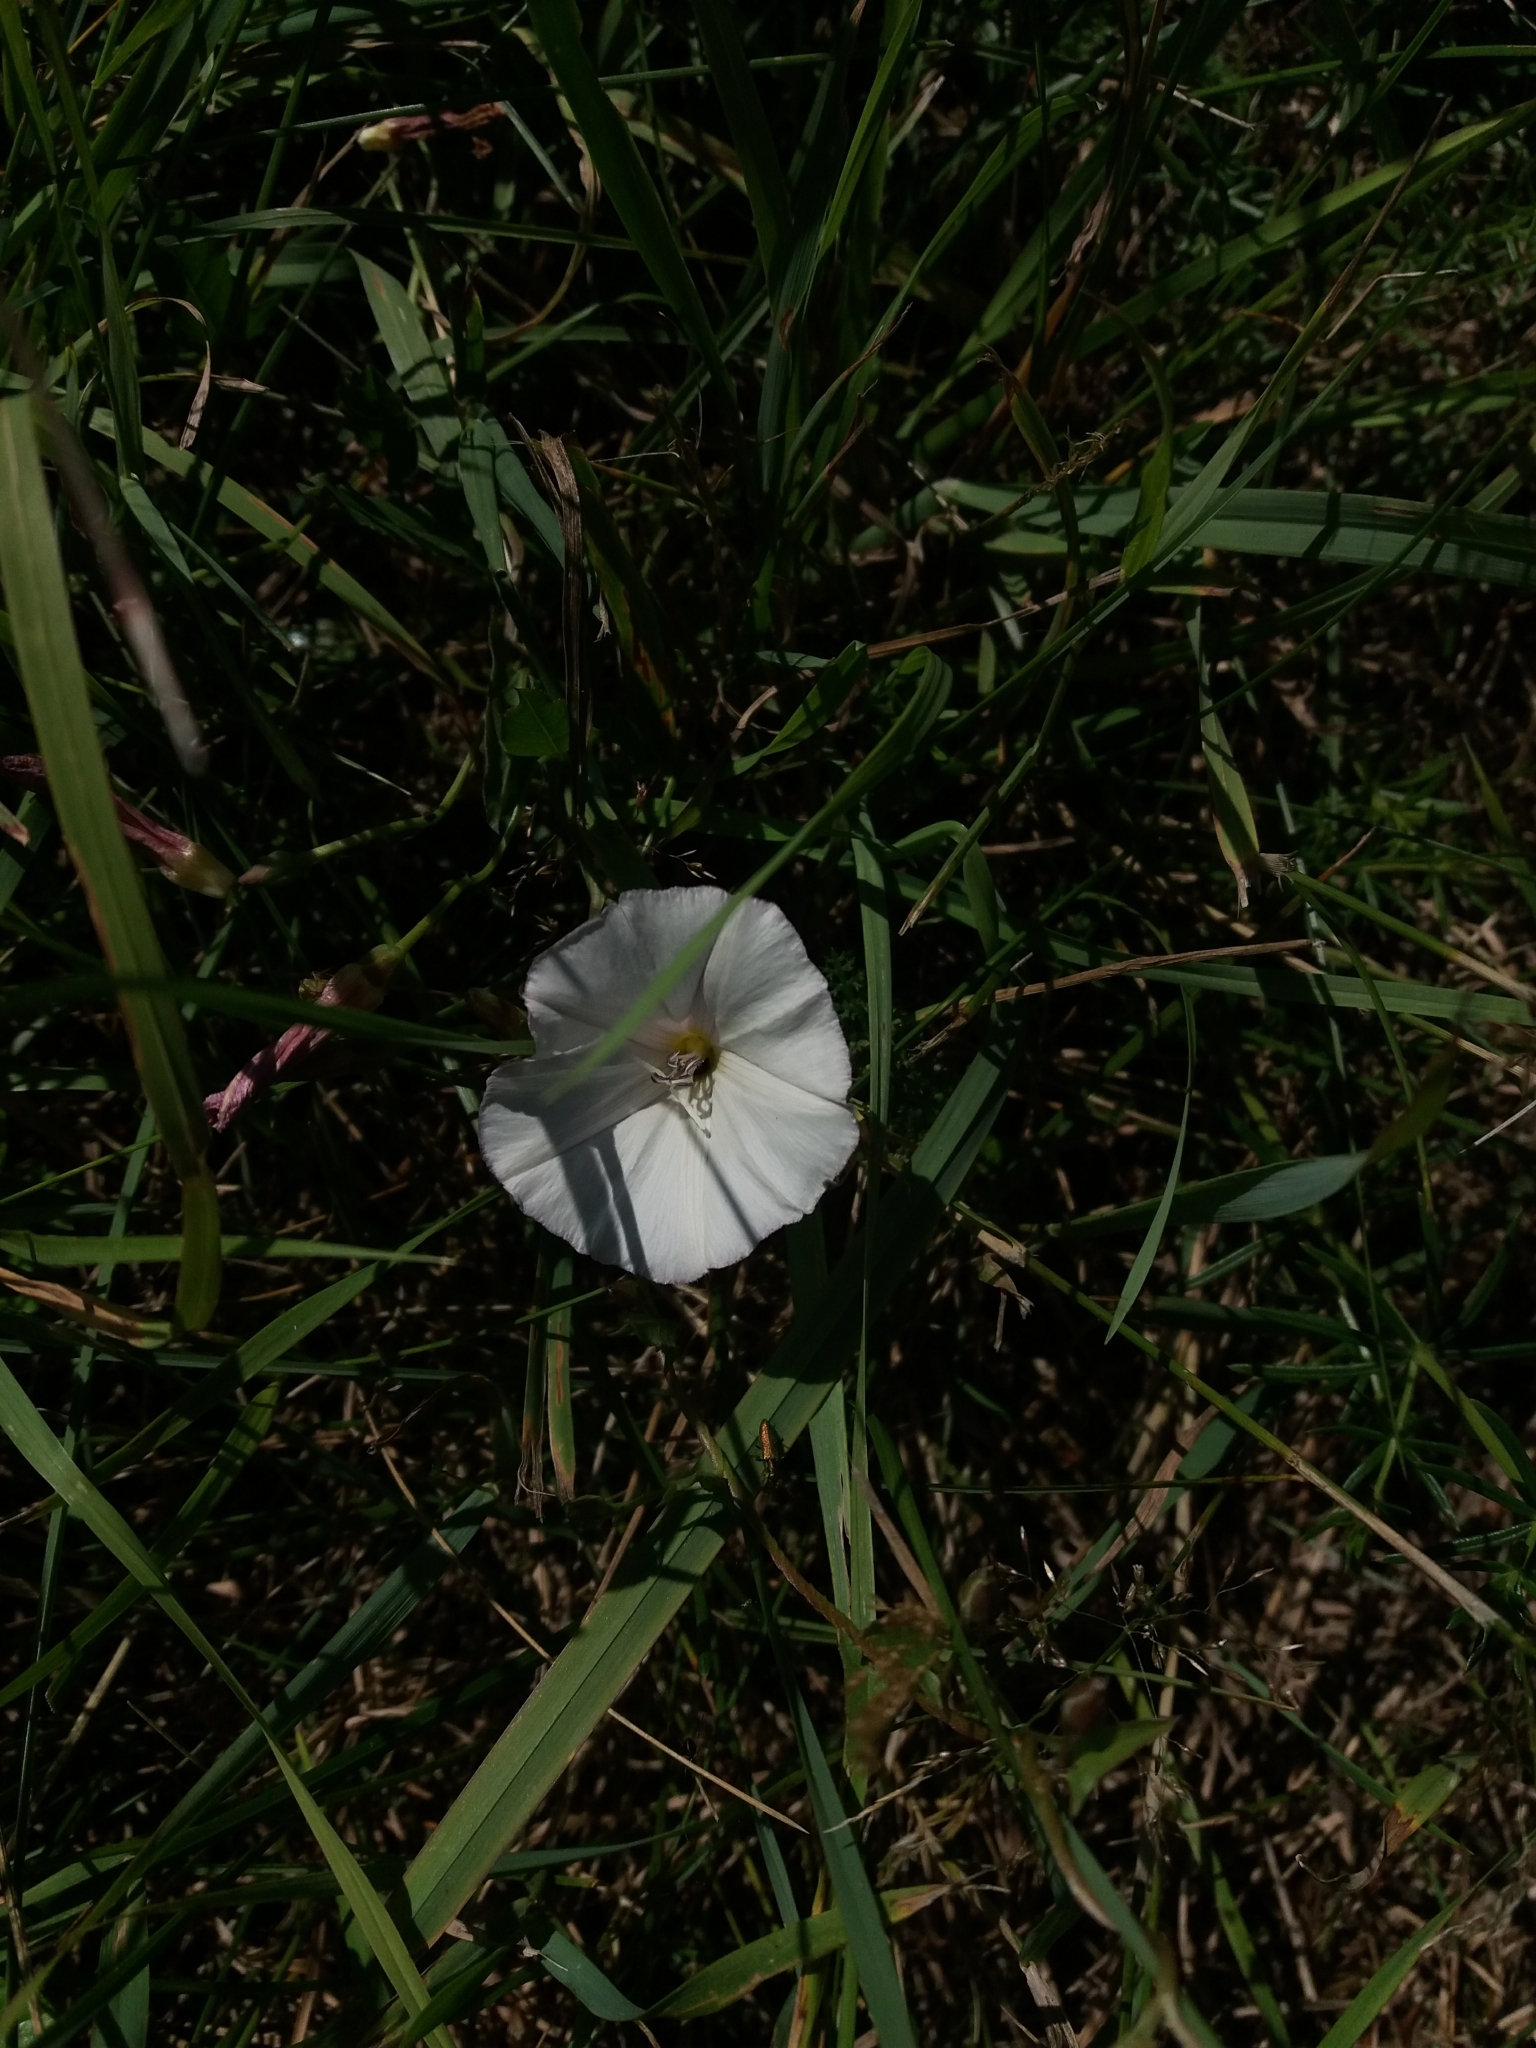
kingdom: Plantae
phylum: Tracheophyta
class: Magnoliopsida
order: Solanales
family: Convolvulaceae
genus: Convolvulus
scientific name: Convolvulus arvensis
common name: Field bindweed
